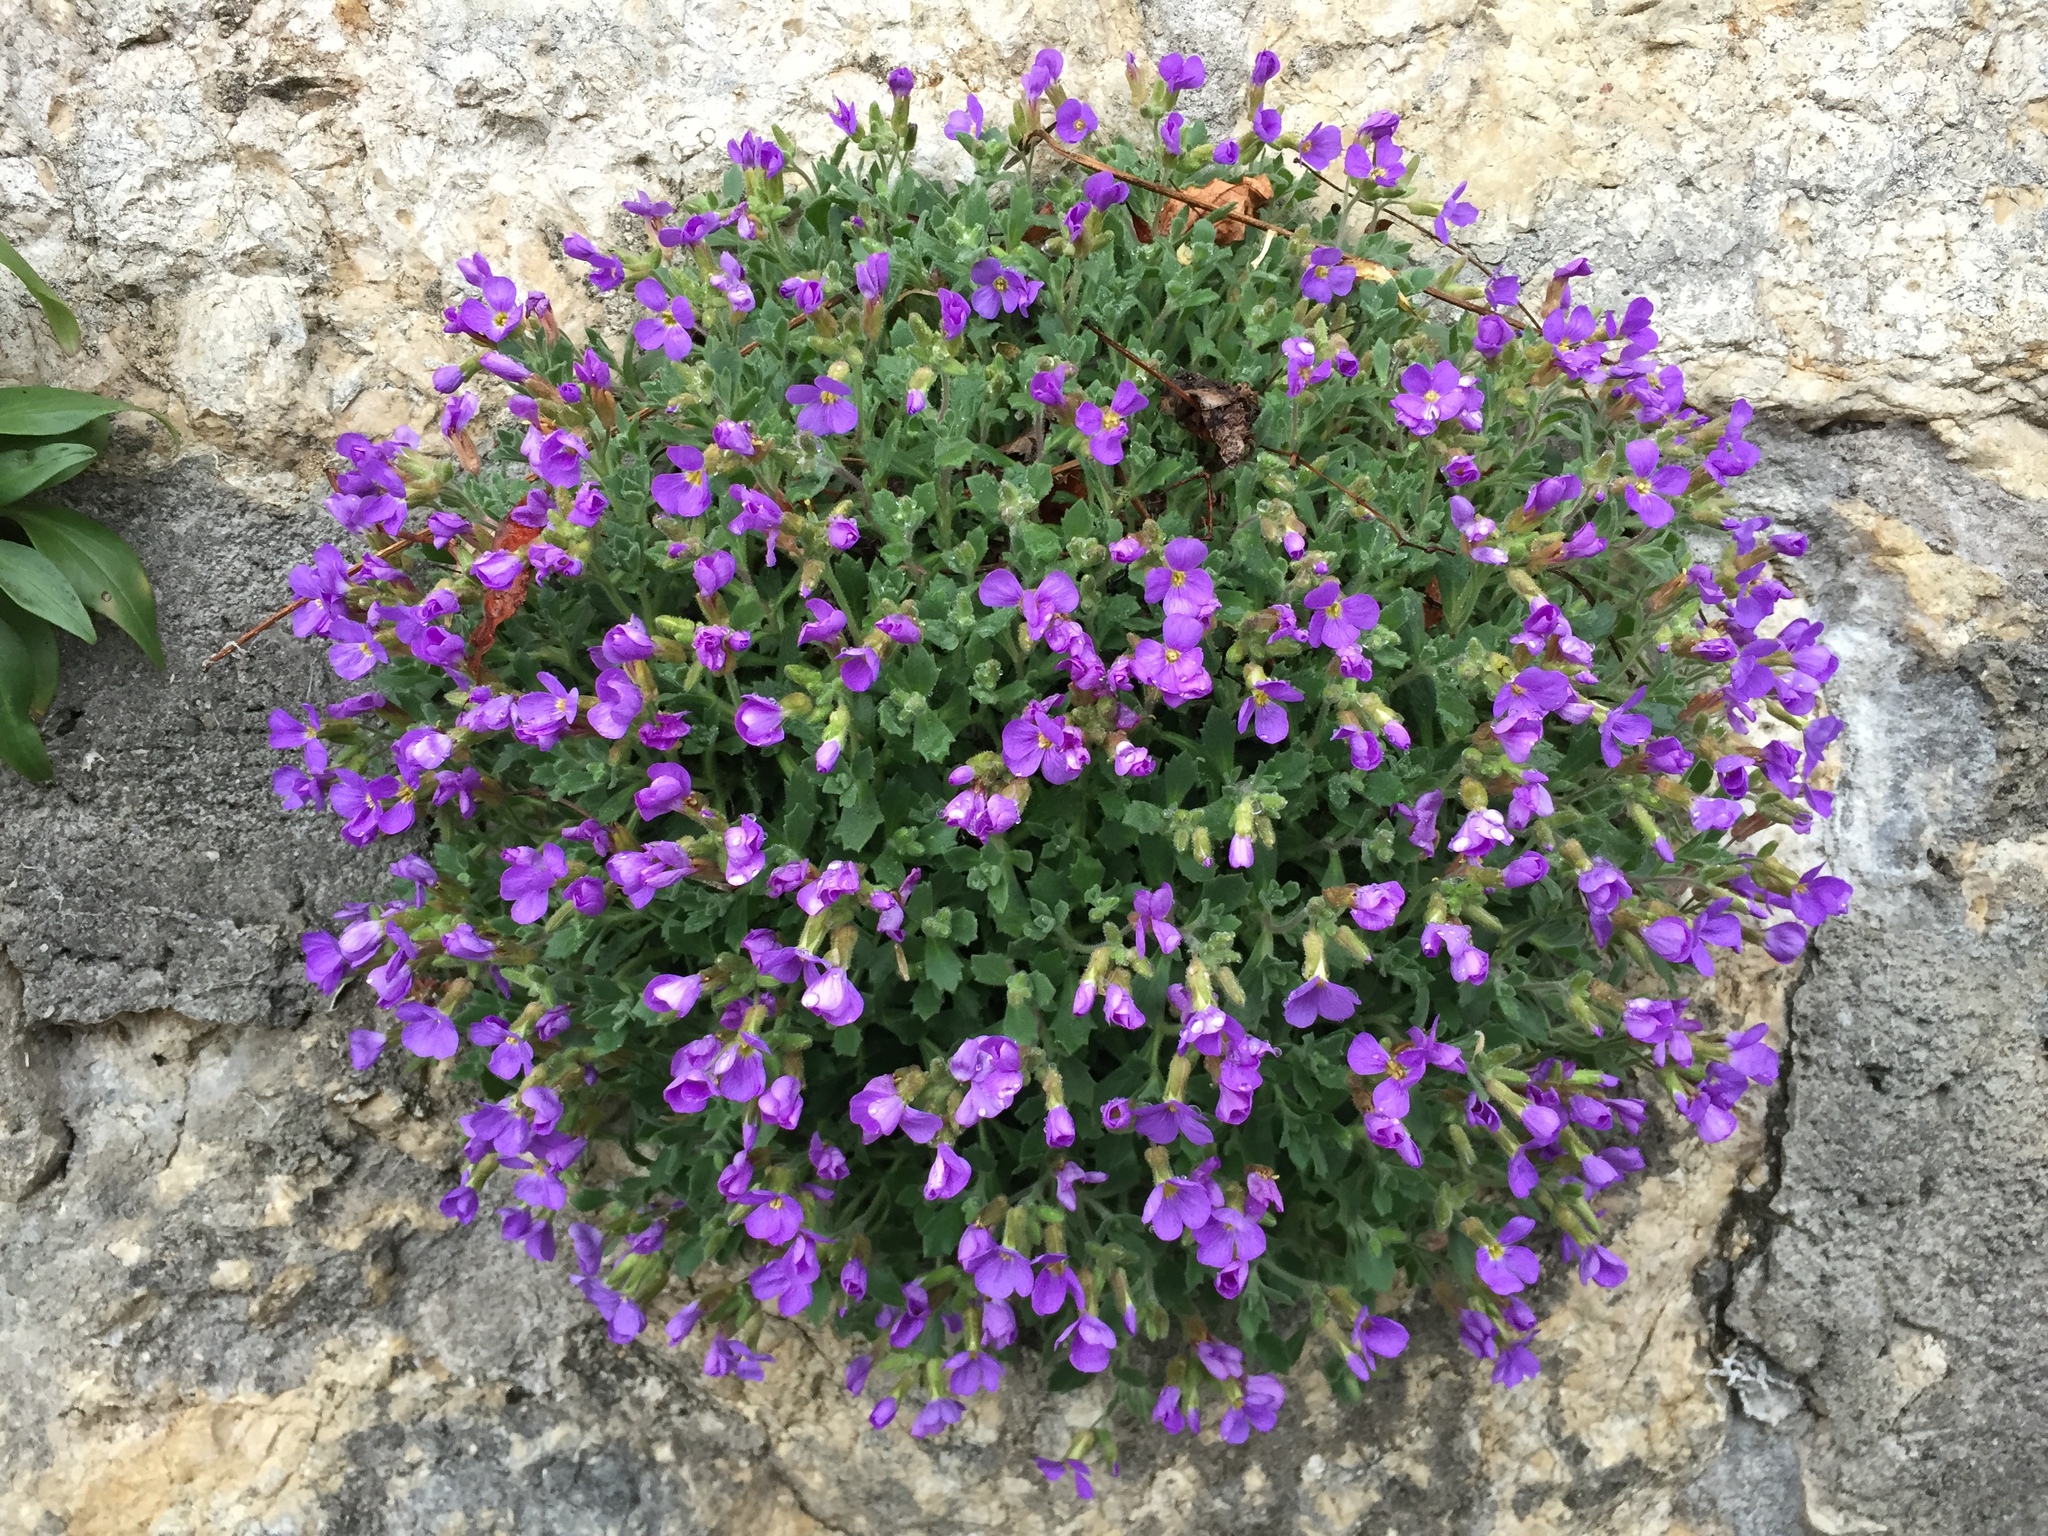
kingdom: Plantae
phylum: Tracheophyta
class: Magnoliopsida
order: Brassicales
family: Brassicaceae
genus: Aubrieta
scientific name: Aubrieta deltoidea
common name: Aubretia
